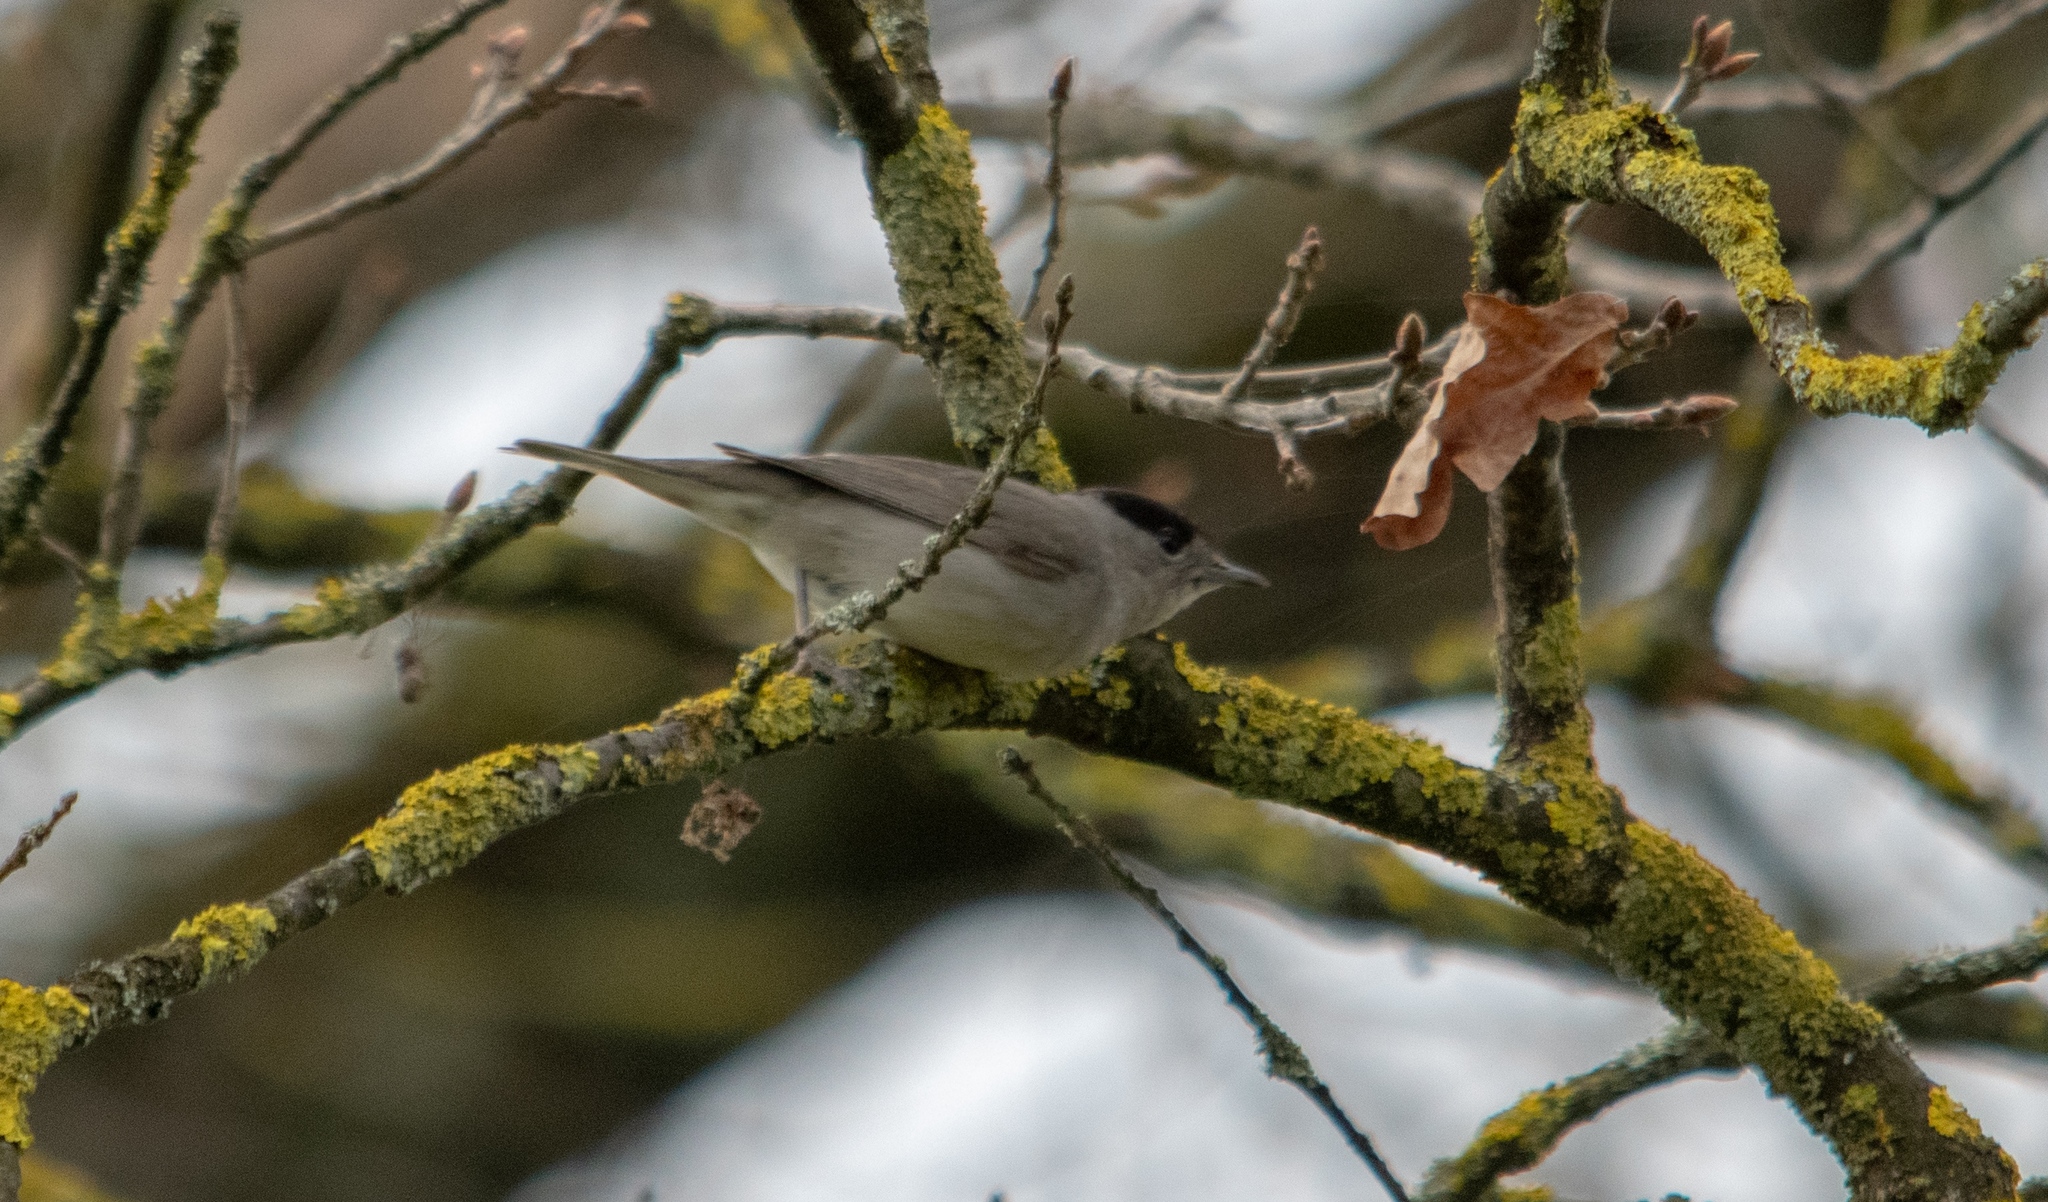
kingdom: Animalia
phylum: Chordata
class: Aves
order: Passeriformes
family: Sylviidae
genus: Sylvia
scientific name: Sylvia atricapilla
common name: Eurasian blackcap
